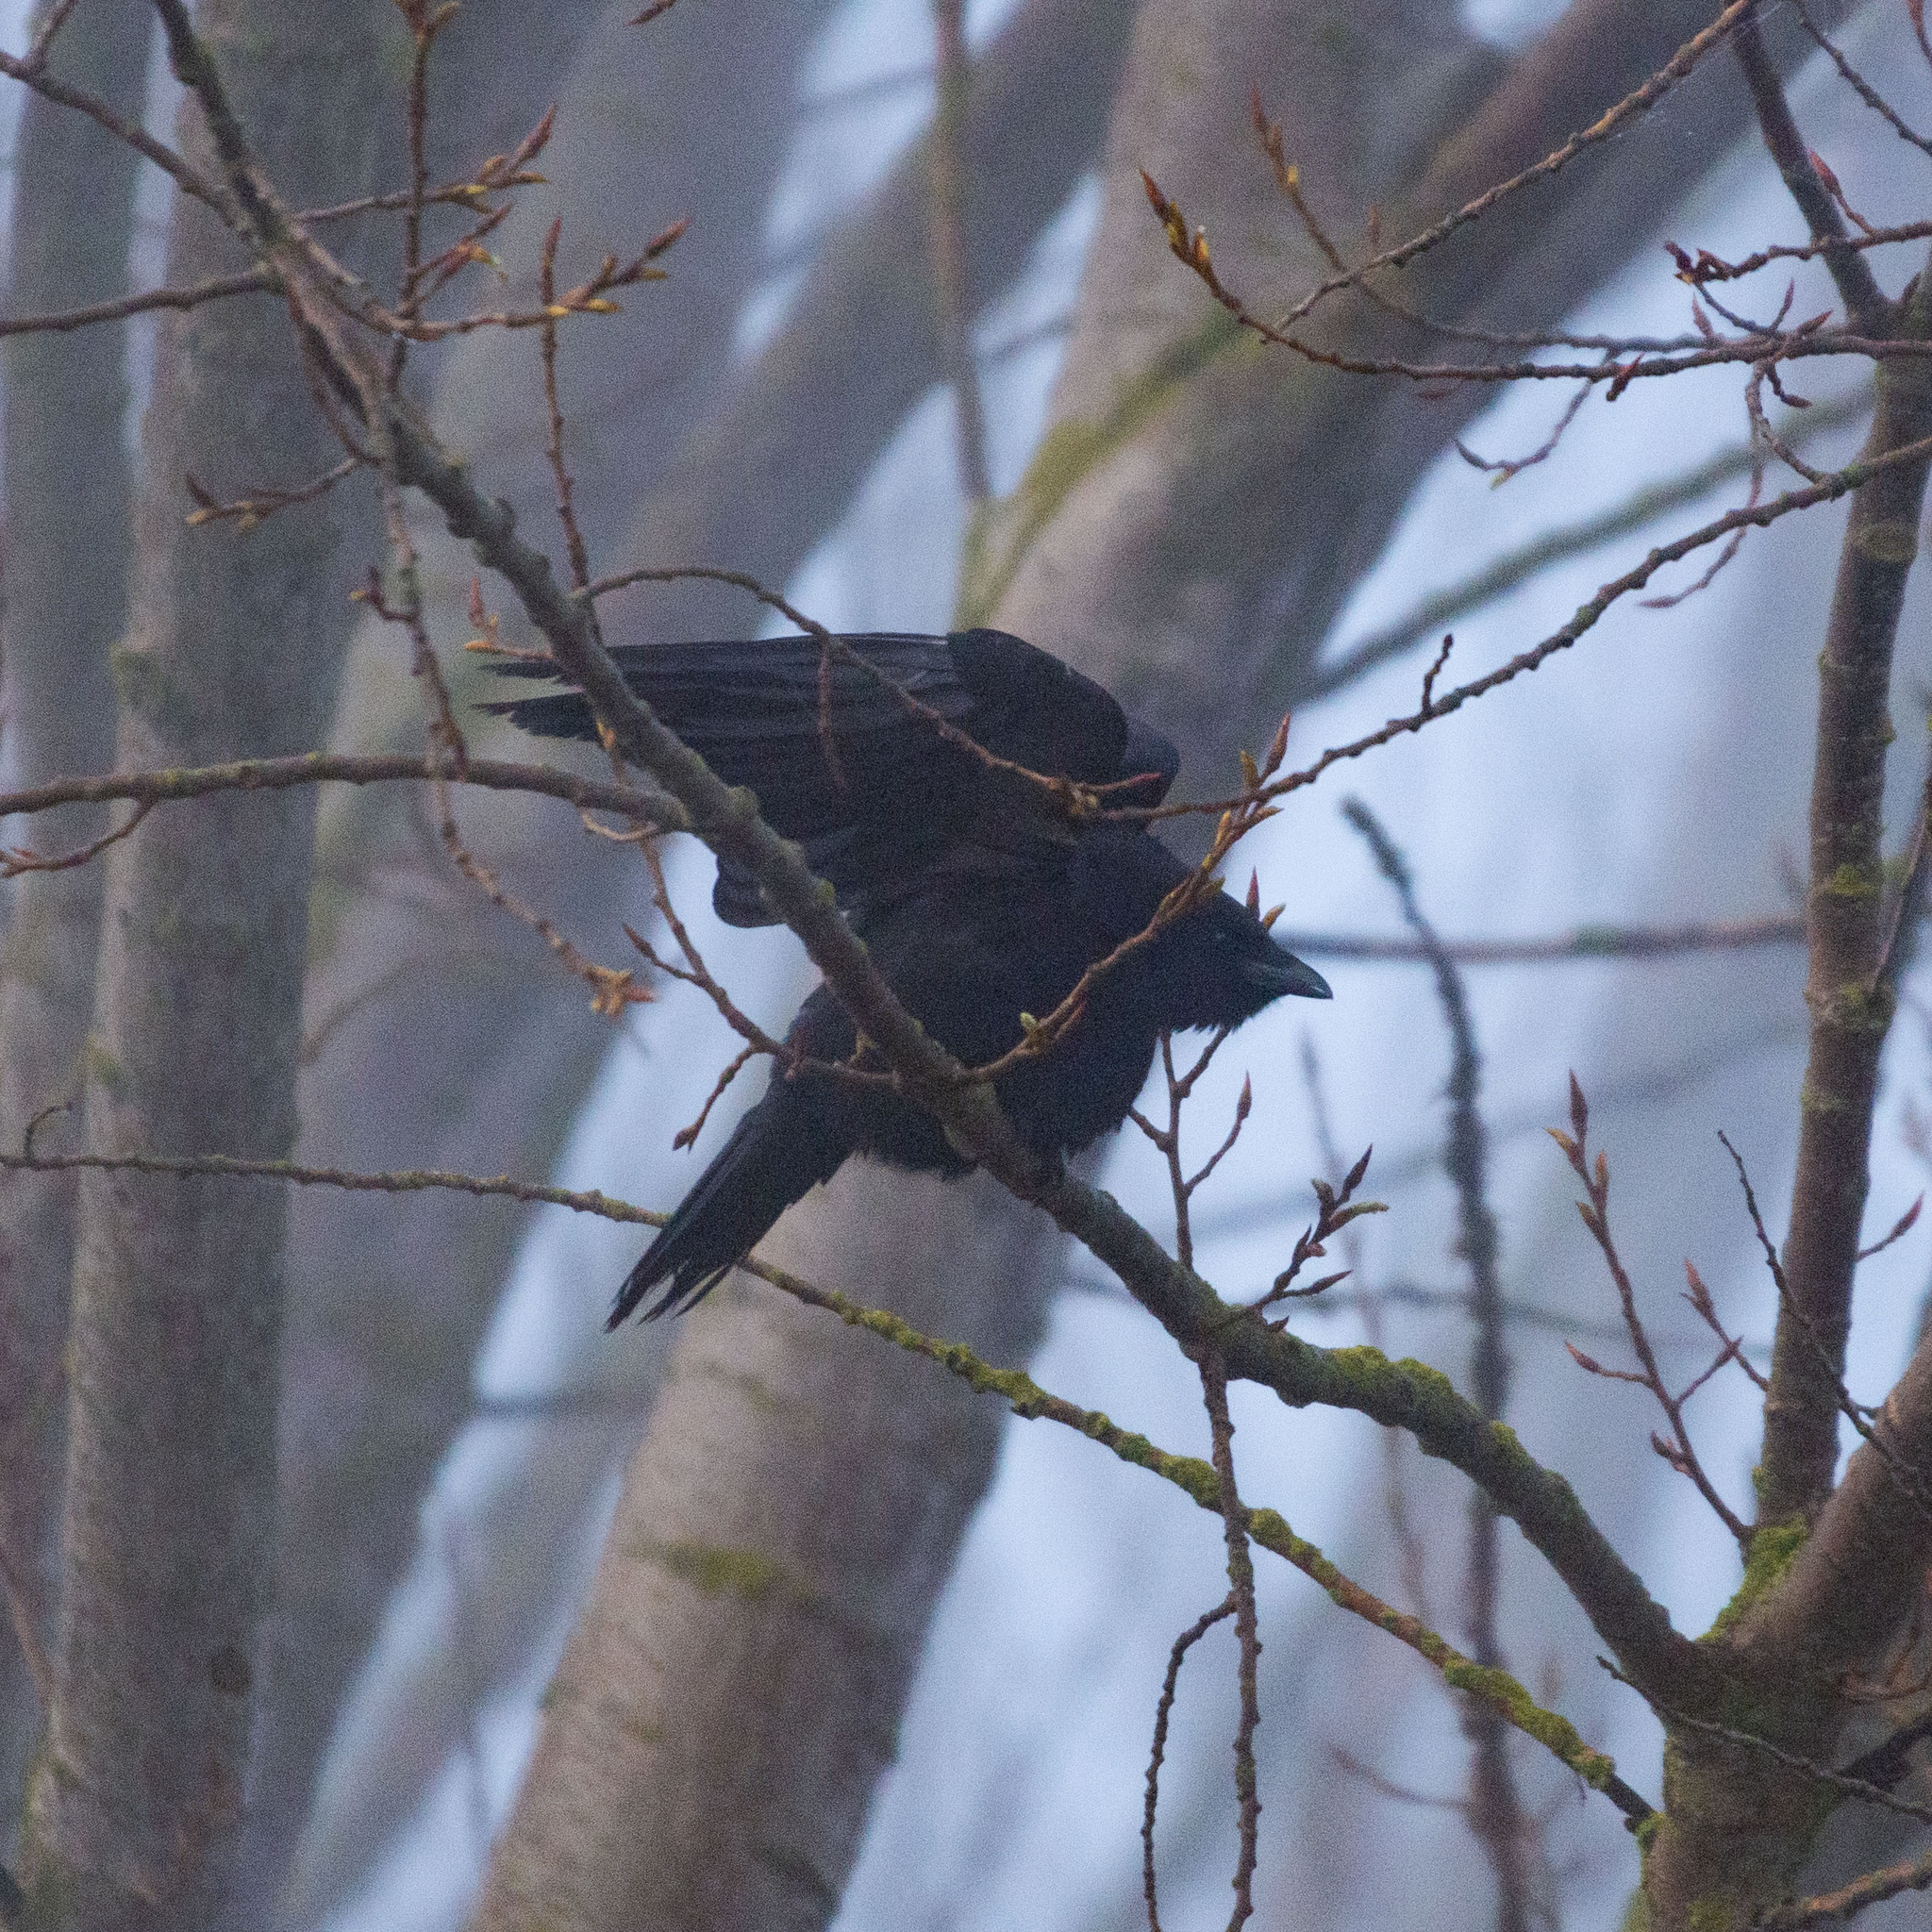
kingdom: Animalia
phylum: Chordata
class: Aves
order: Passeriformes
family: Corvidae
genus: Corvus
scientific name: Corvus corone
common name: Carrion crow
